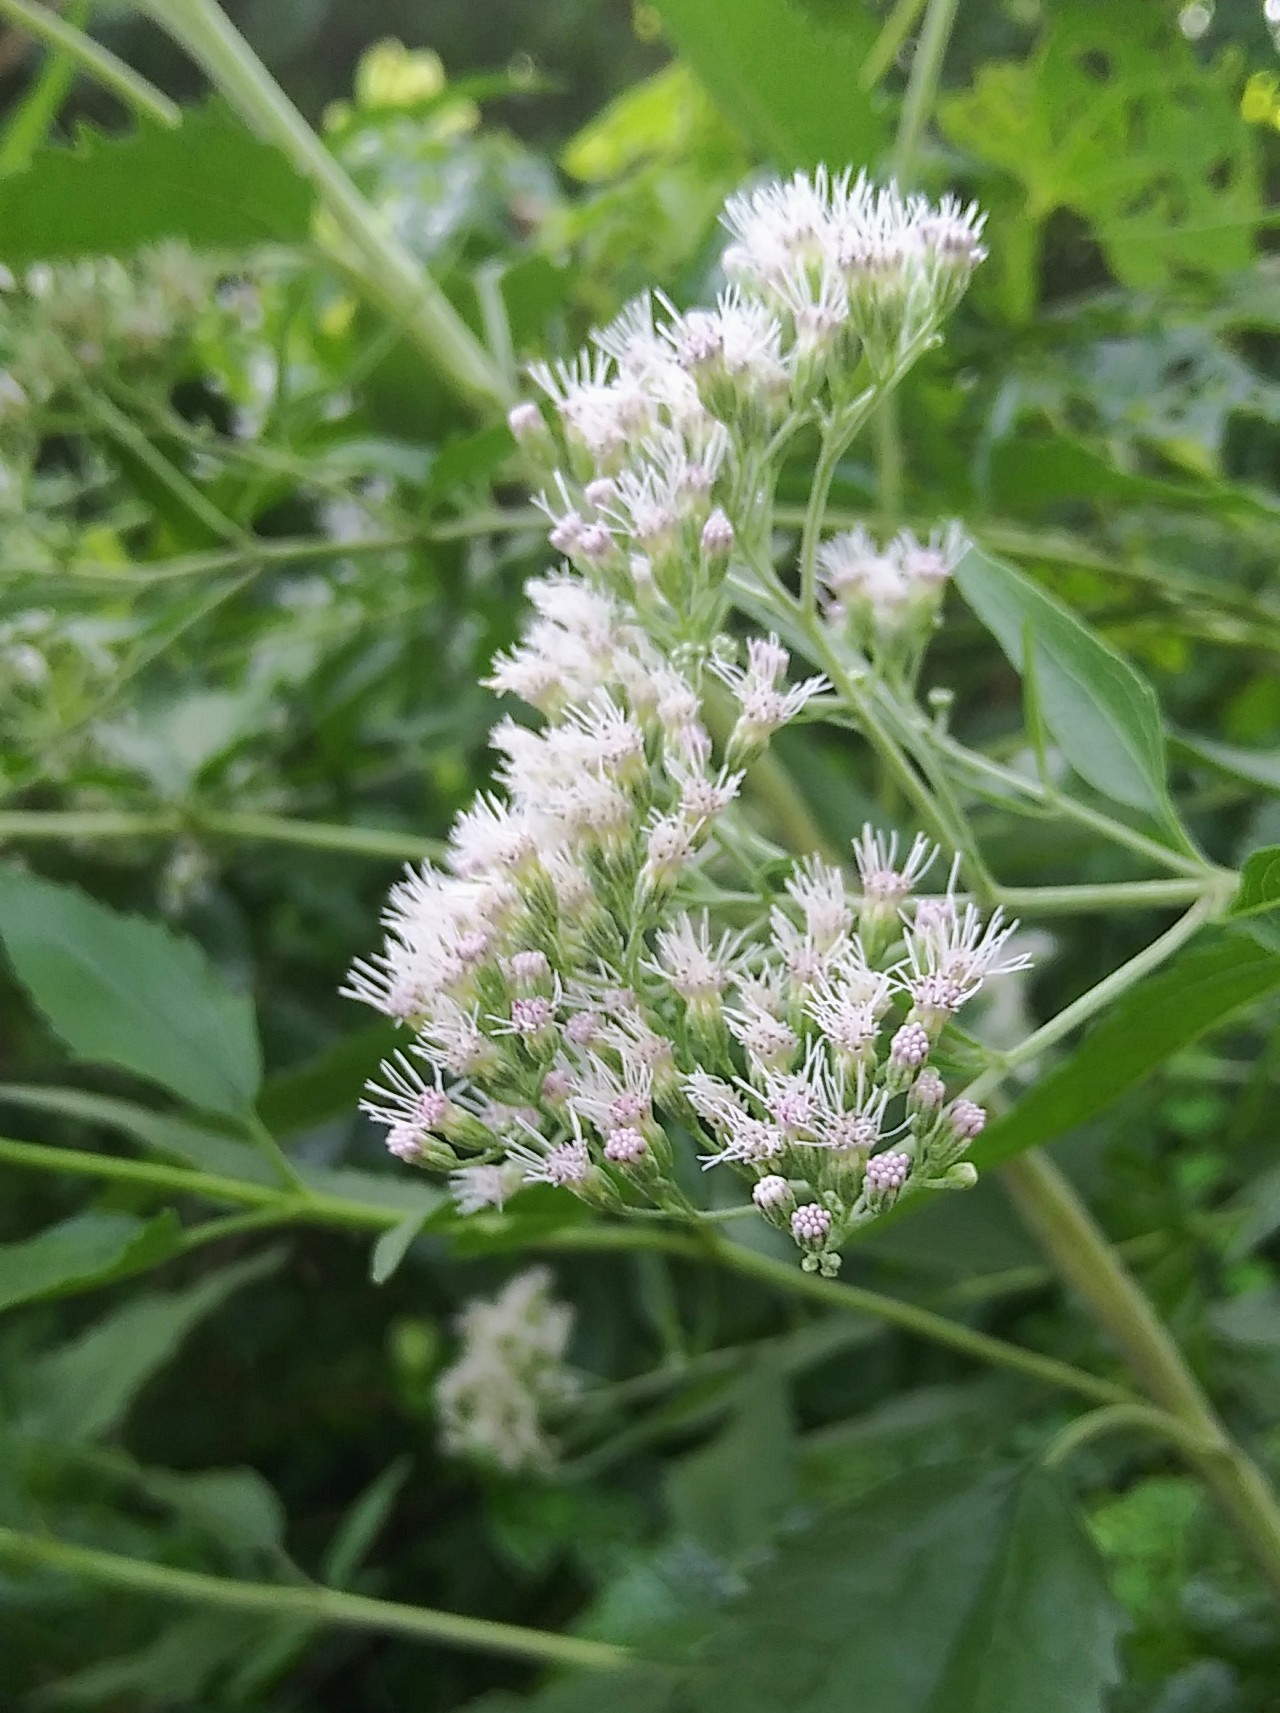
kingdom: Plantae
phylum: Tracheophyta
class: Magnoliopsida
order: Asterales
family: Asteraceae
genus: Eupatorium
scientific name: Eupatorium serotinum
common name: Late boneset
